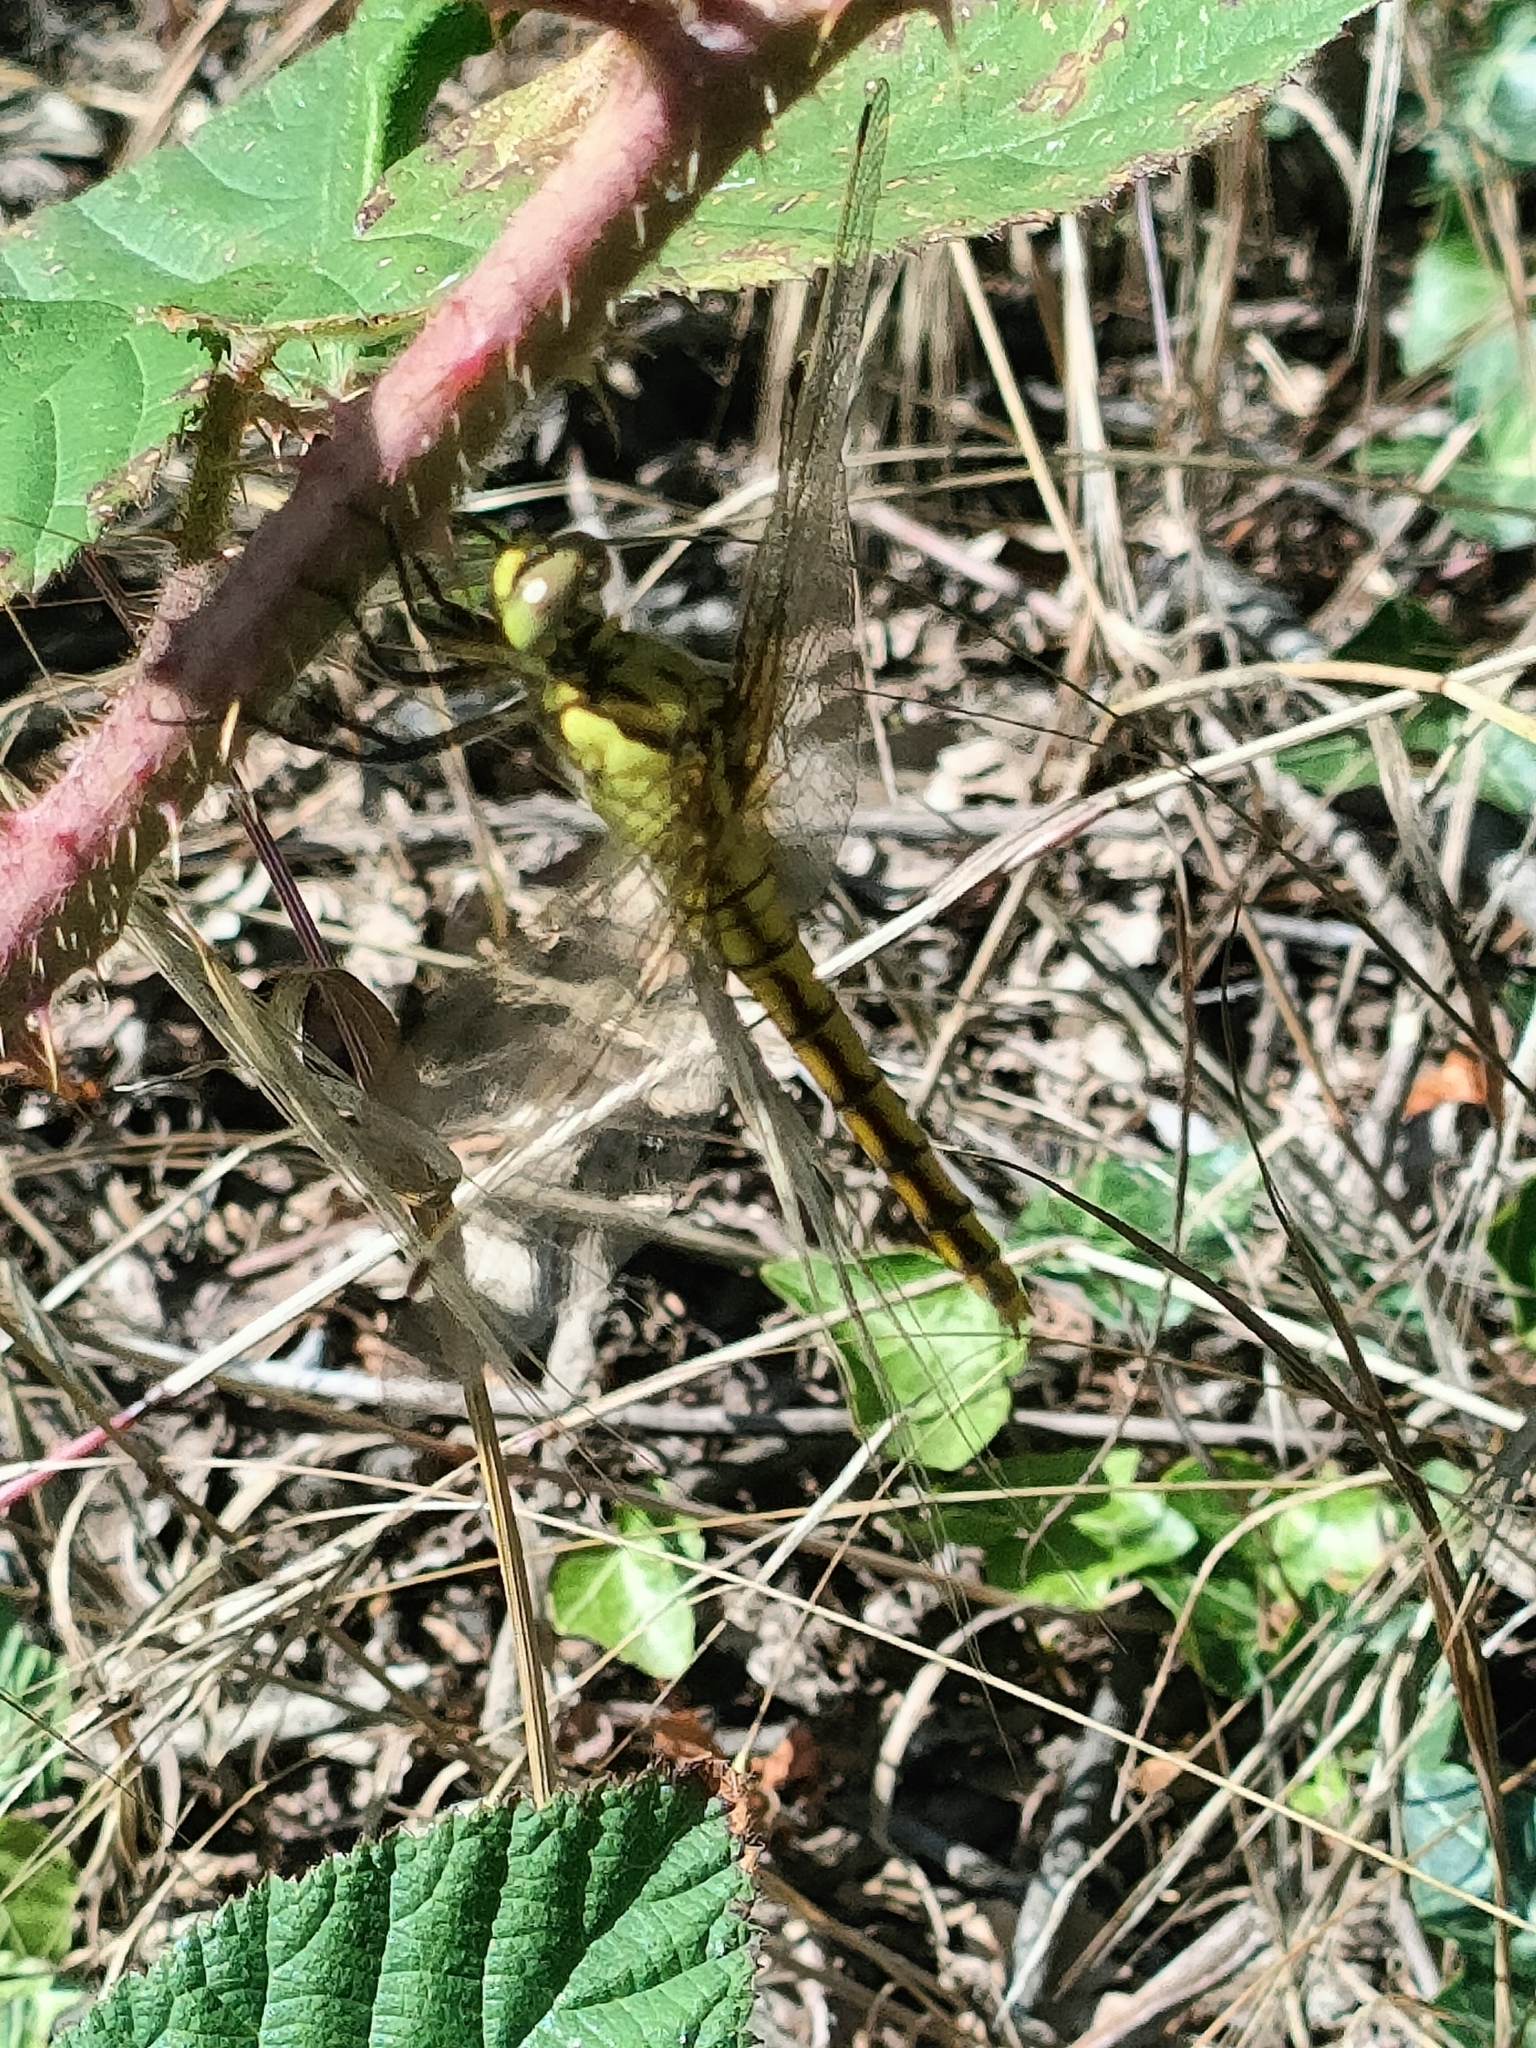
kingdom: Animalia
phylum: Arthropoda
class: Insecta
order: Odonata
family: Libellulidae
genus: Orthetrum
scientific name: Orthetrum cancellatum
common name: Black-tailed skimmer
